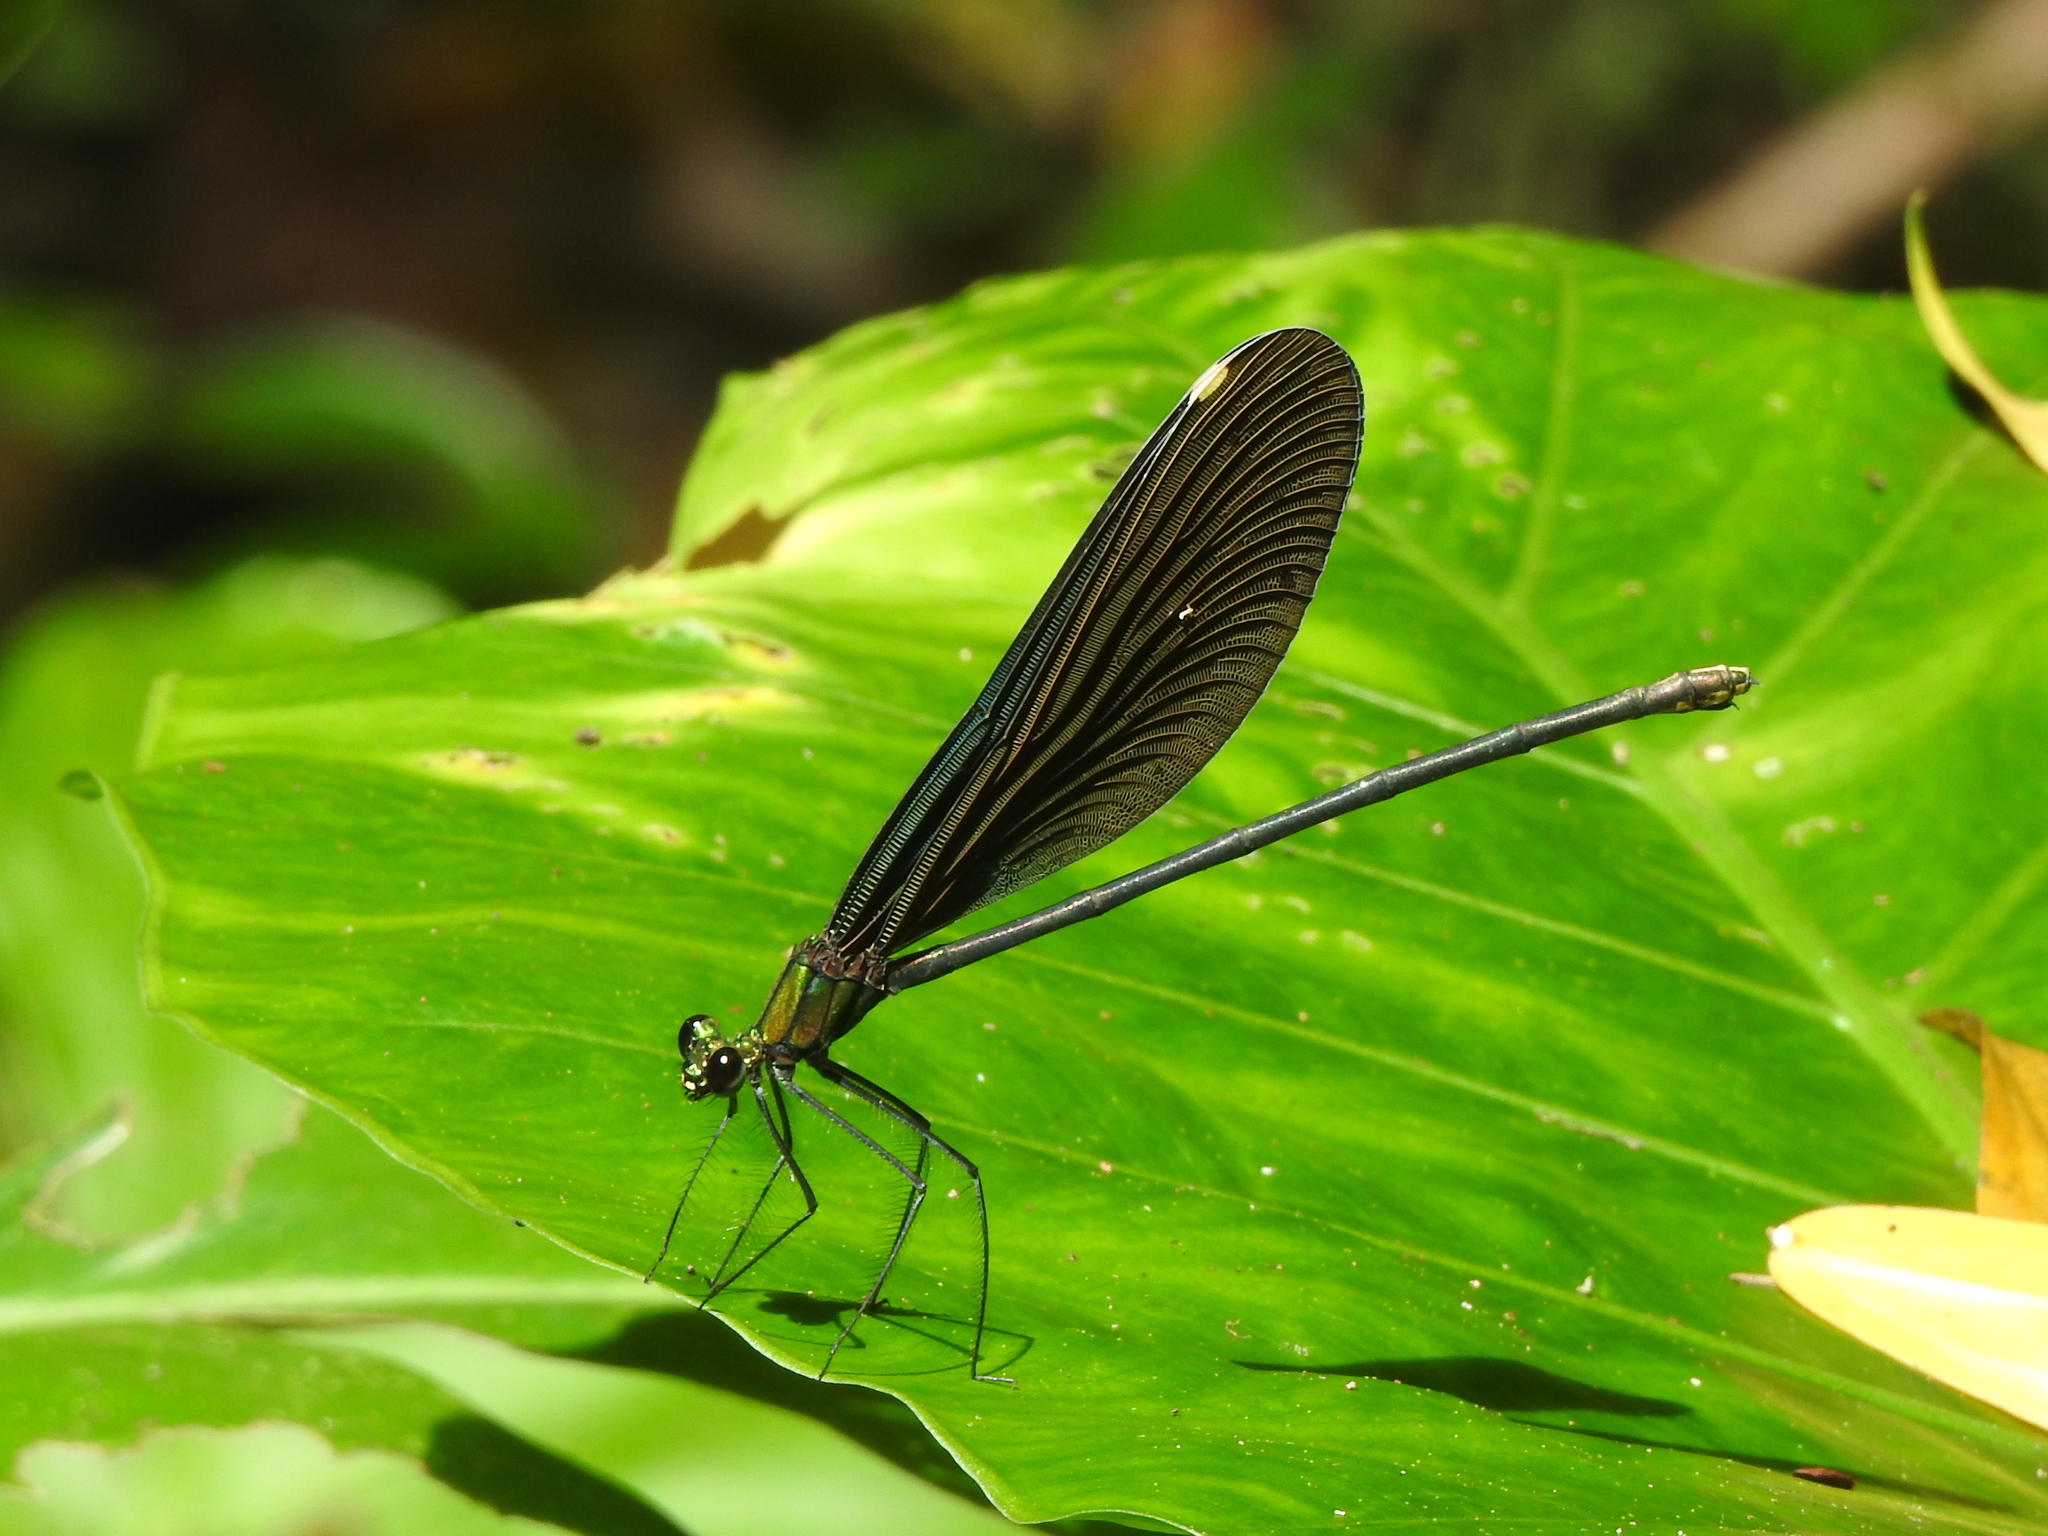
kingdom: Animalia
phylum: Arthropoda
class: Insecta
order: Odonata
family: Calopterygidae
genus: Matrona
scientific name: Matrona cyanoptera
